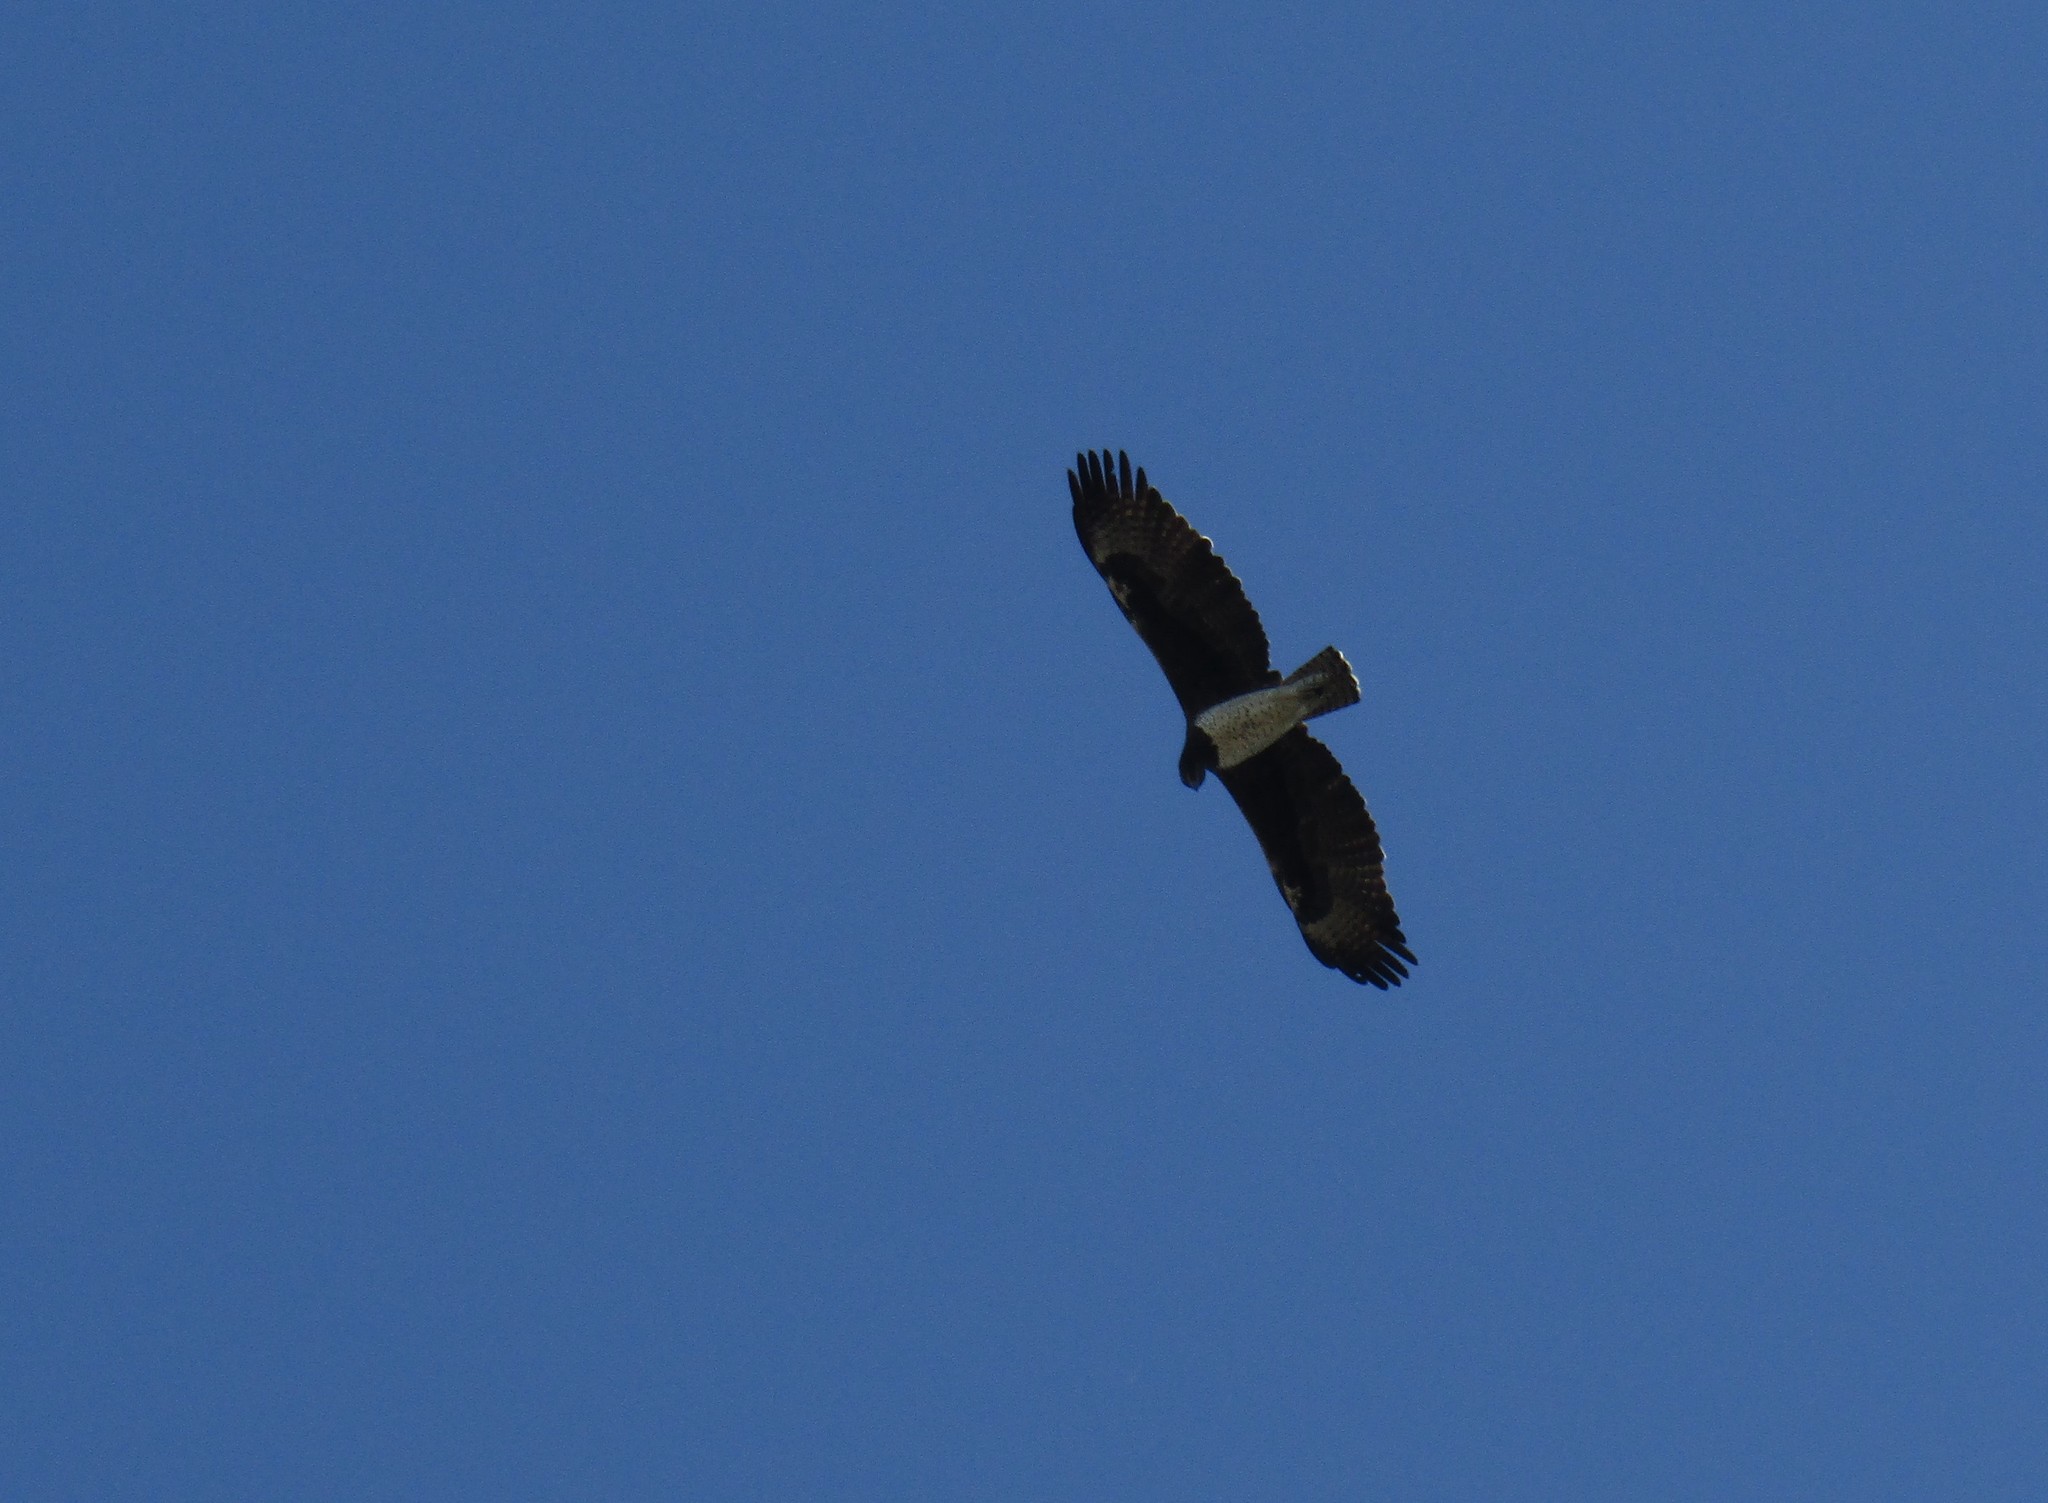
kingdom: Animalia
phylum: Chordata
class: Aves
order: Accipitriformes
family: Accipitridae
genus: Polemaetus
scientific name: Polemaetus bellicosus
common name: Martial eagle
